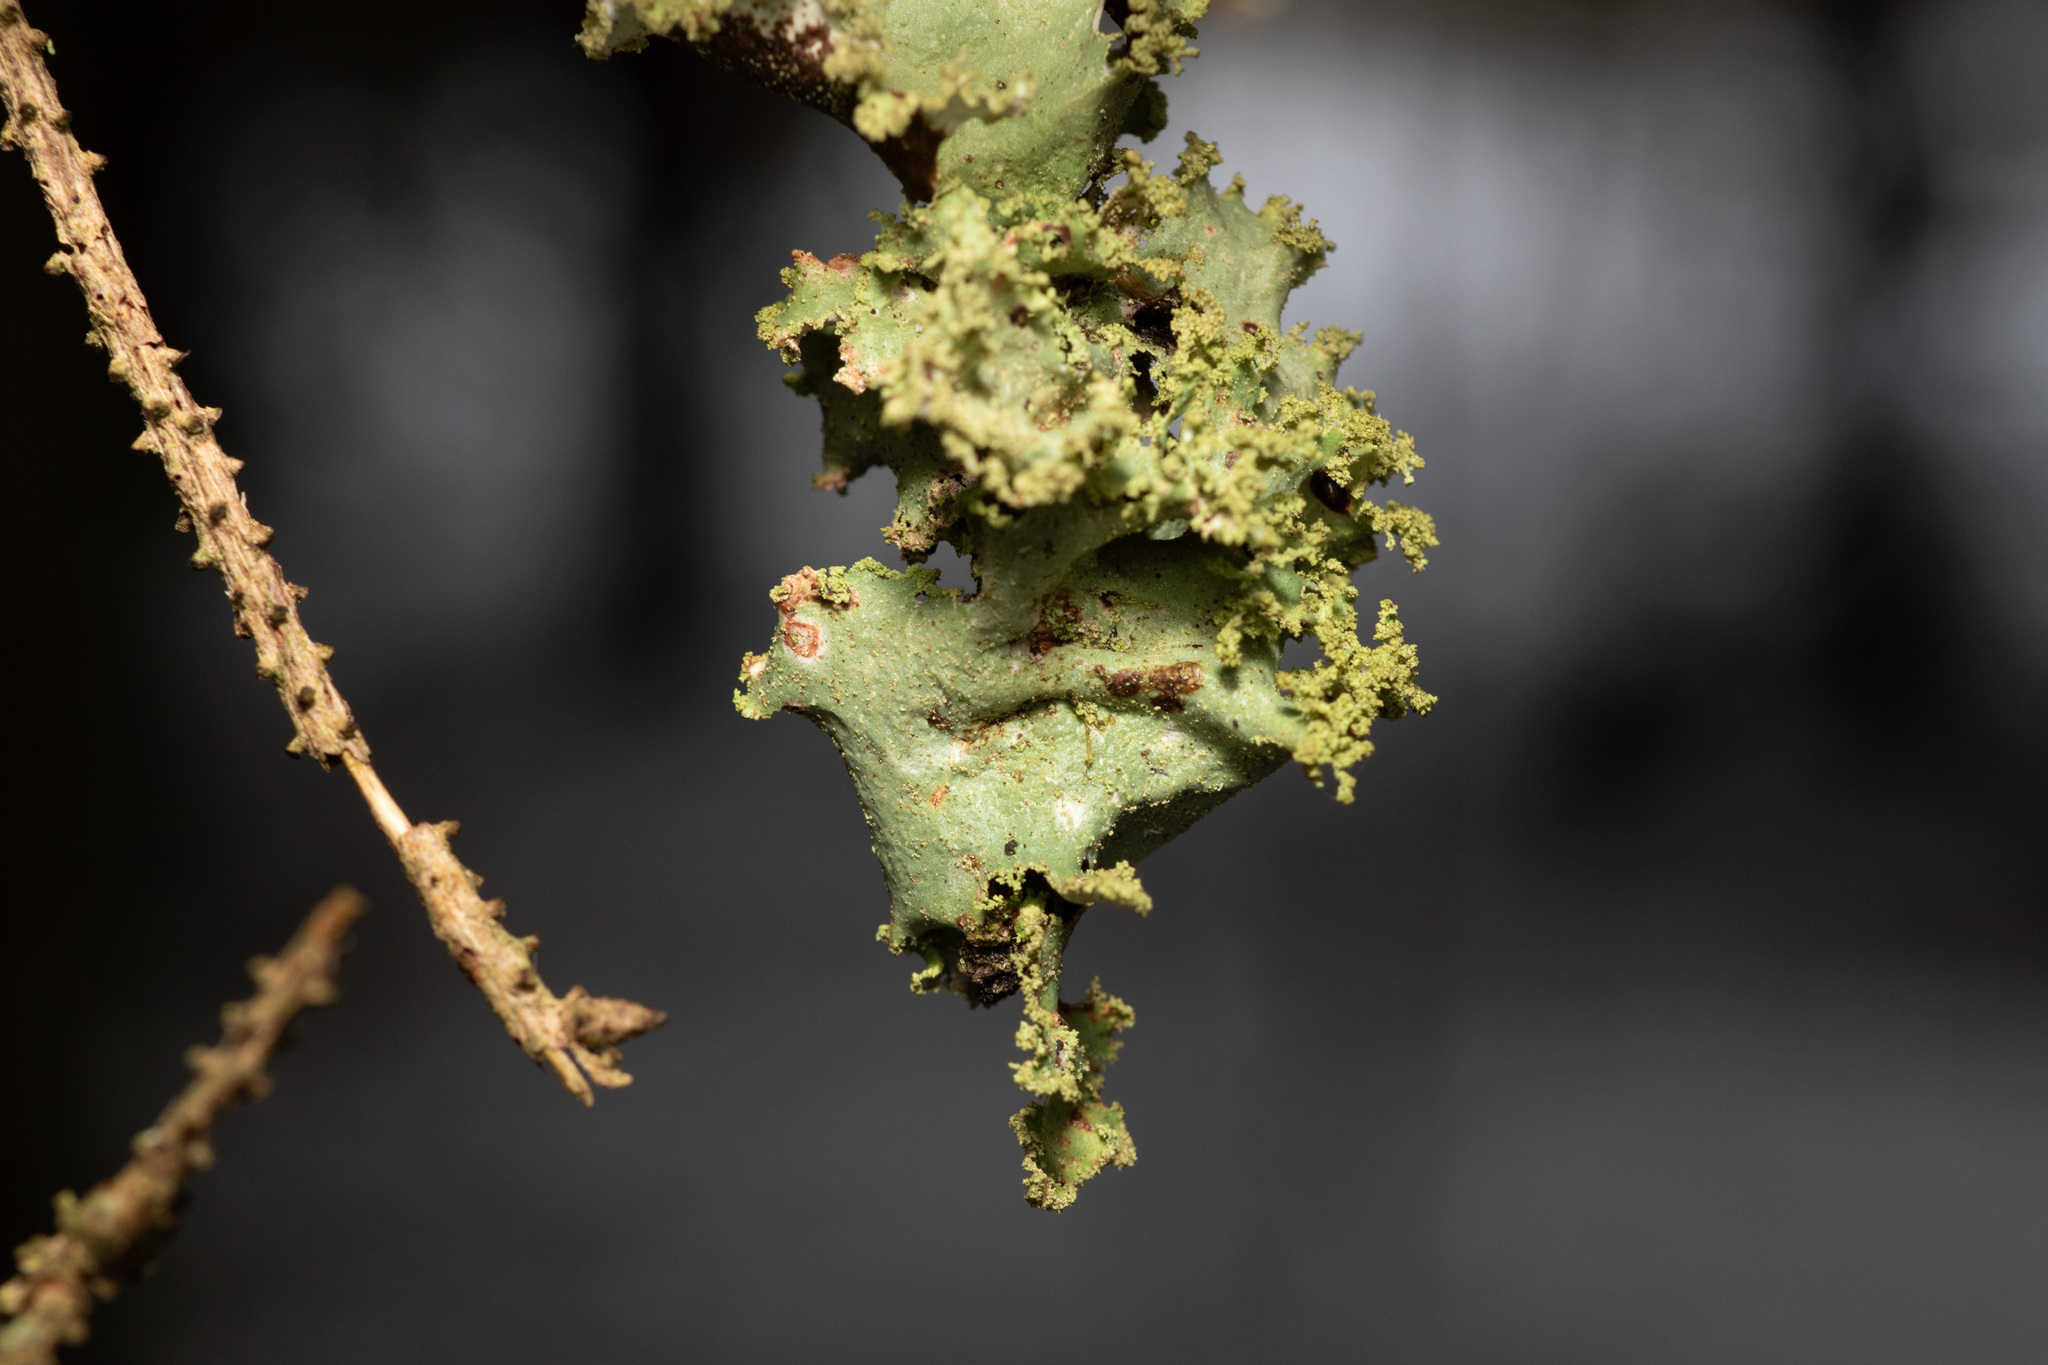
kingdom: Fungi
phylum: Ascomycota
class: Lecanoromycetes
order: Lecanorales
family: Parmeliaceae
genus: Platismatia
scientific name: Platismatia glauca
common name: Varied rag lichen
